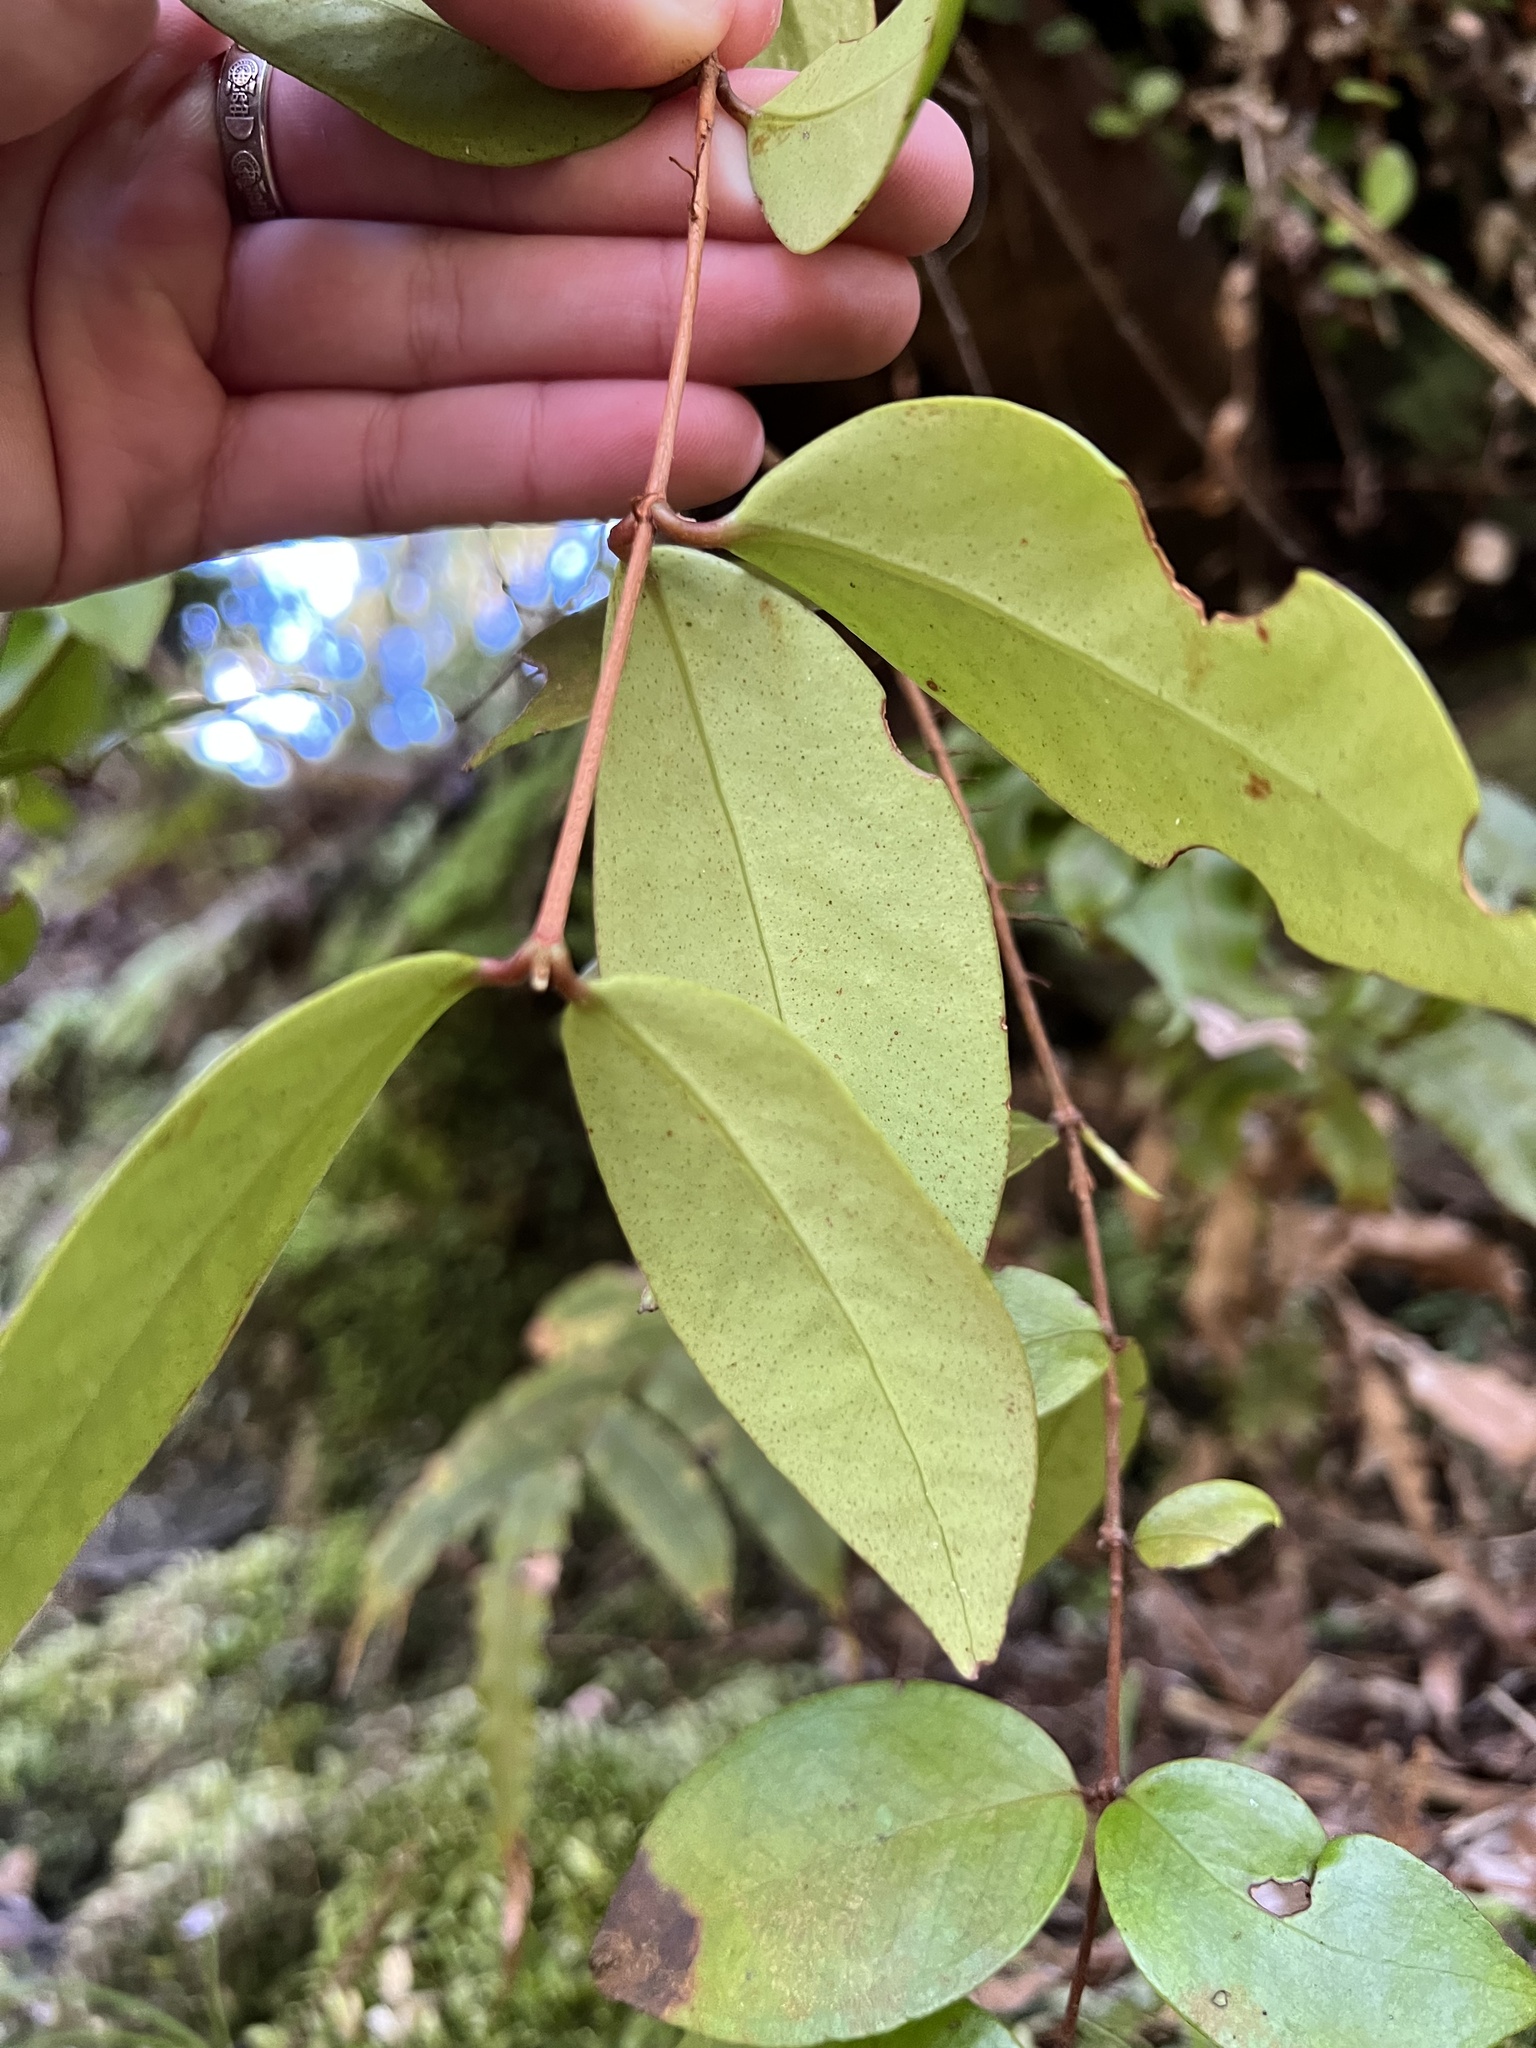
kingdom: Plantae
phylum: Tracheophyta
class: Magnoliopsida
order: Myrtales
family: Myrtaceae
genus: Metrosideros
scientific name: Metrosideros albiflora
